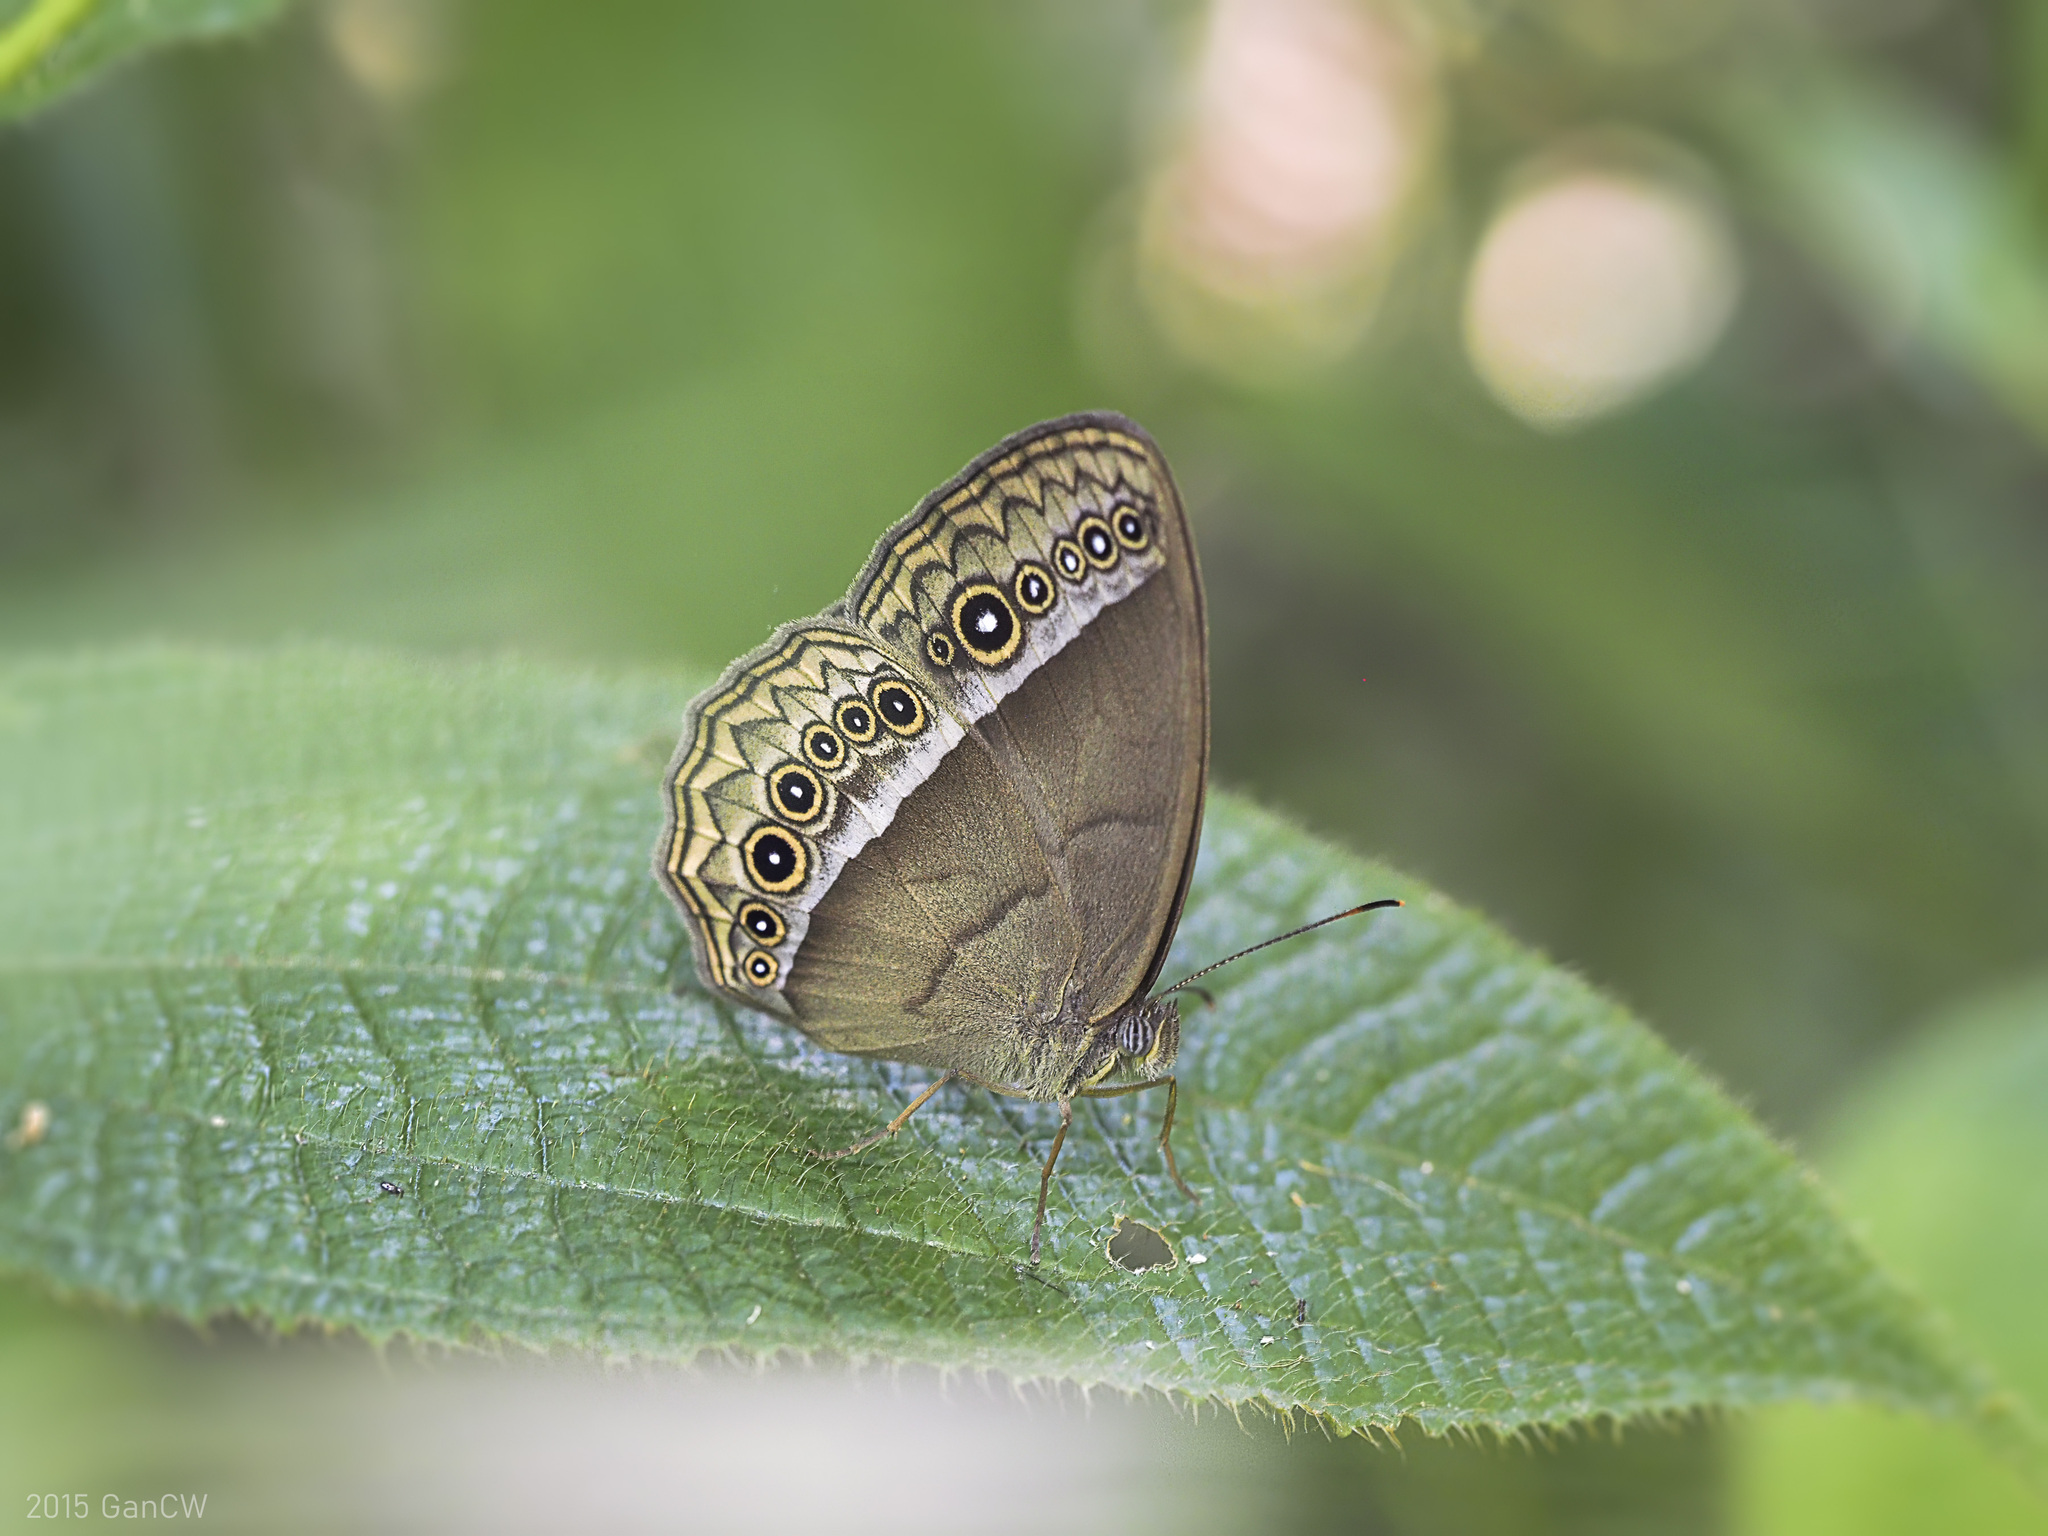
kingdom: Animalia
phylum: Arthropoda
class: Insecta
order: Lepidoptera
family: Nymphalidae
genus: Mycalesis
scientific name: Mycalesis orseis
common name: Purple bushbrown
